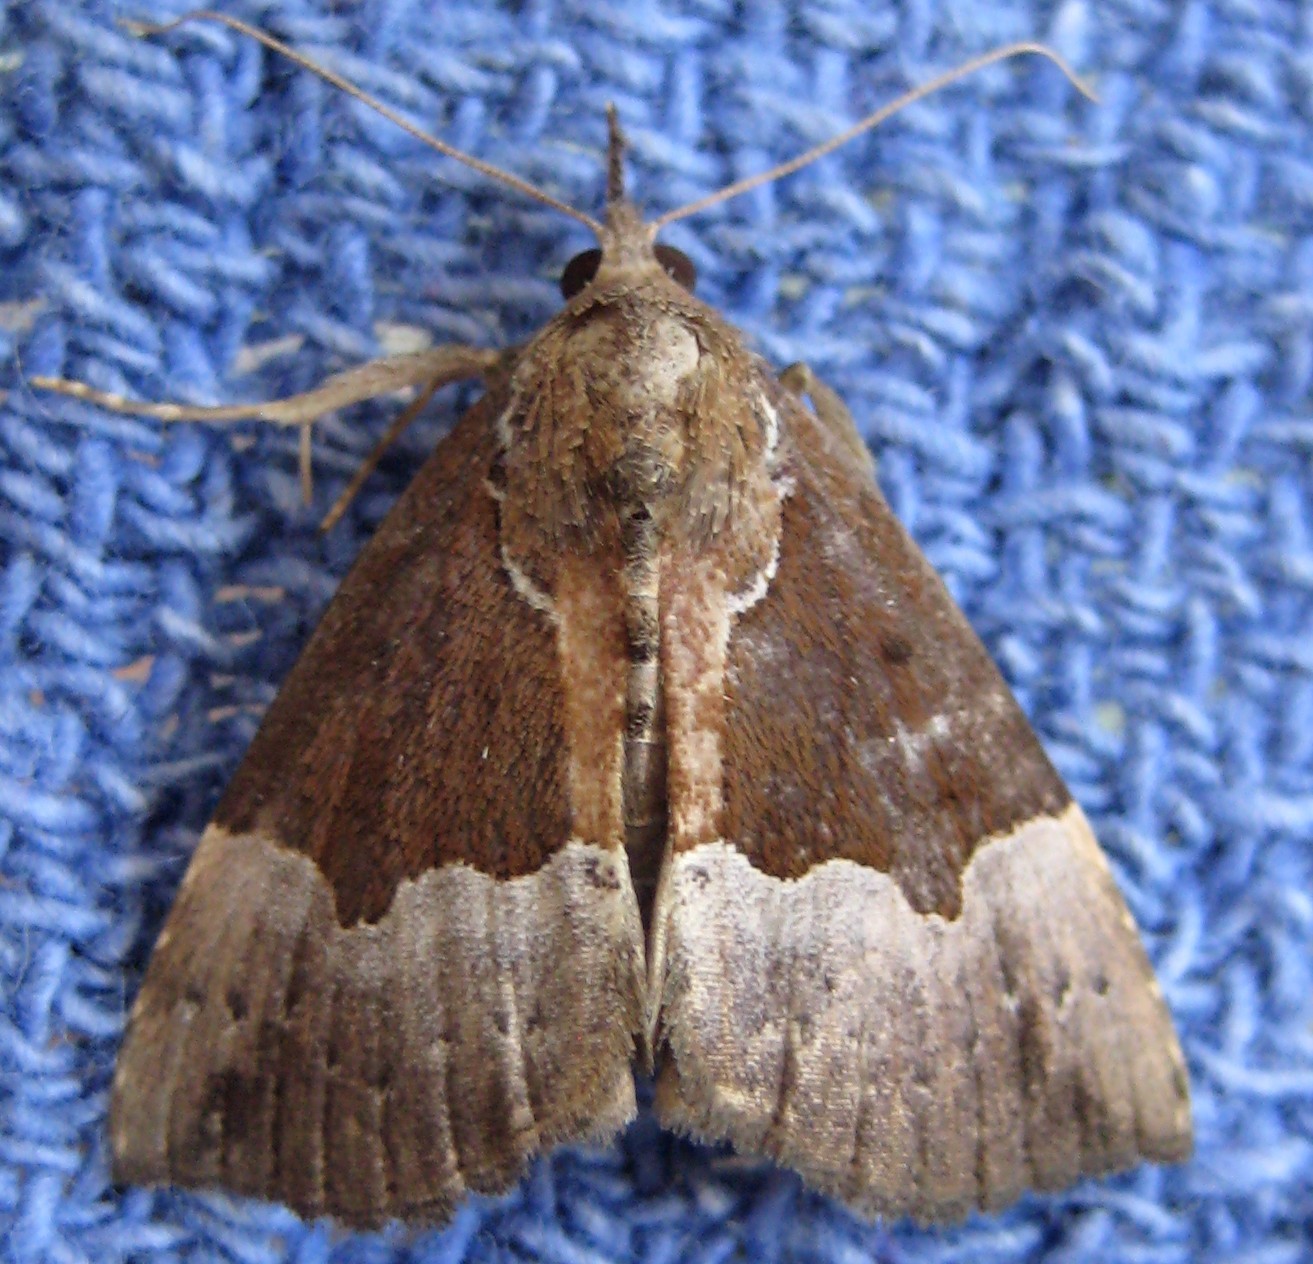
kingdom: Animalia
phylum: Arthropoda
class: Insecta
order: Lepidoptera
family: Erebidae
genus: Hypena
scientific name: Hypena bijugalis
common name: Dimorphic bomolocha moth
